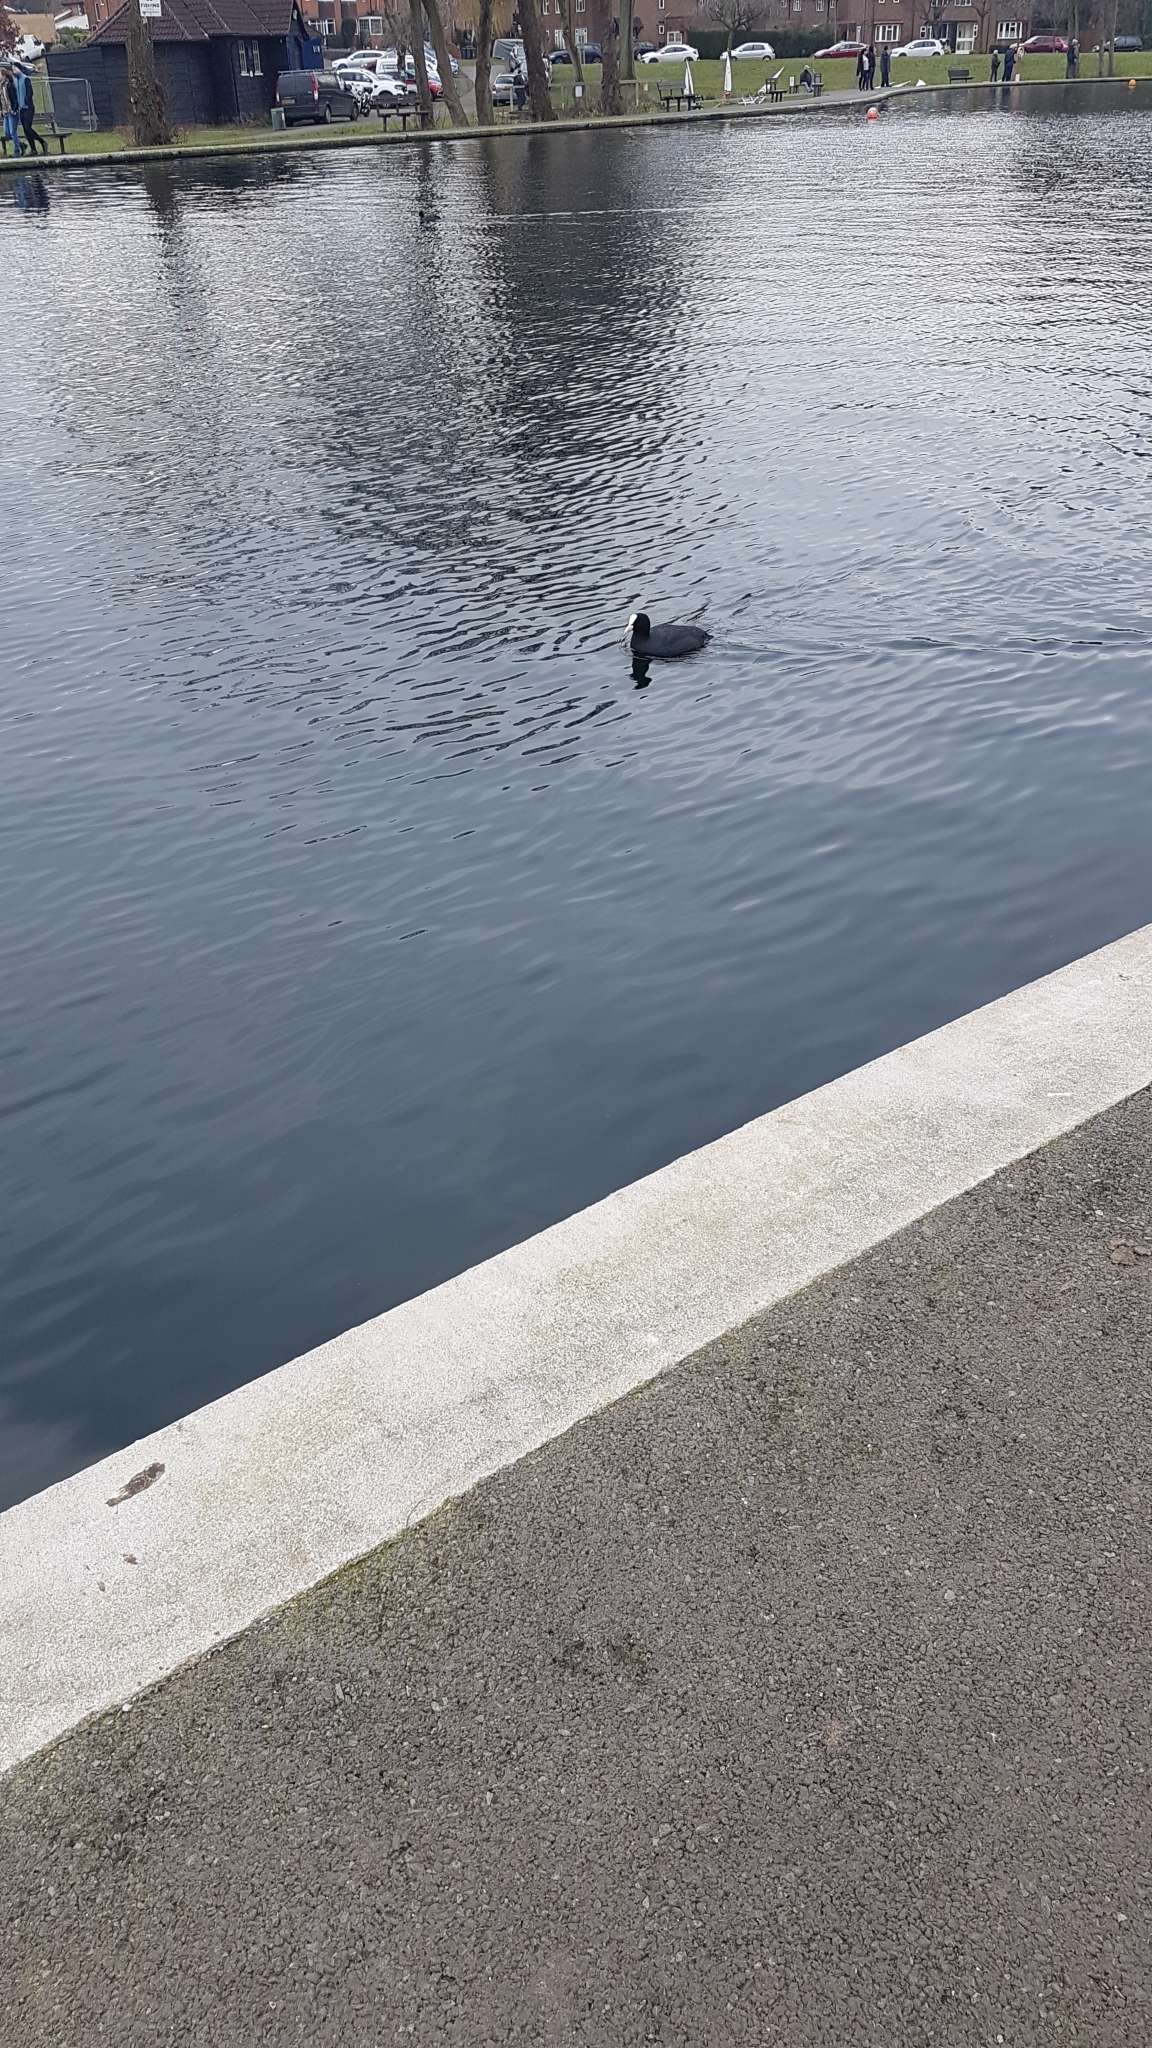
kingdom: Animalia
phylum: Chordata
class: Aves
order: Gruiformes
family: Rallidae
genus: Fulica
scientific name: Fulica atra
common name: Eurasian coot
